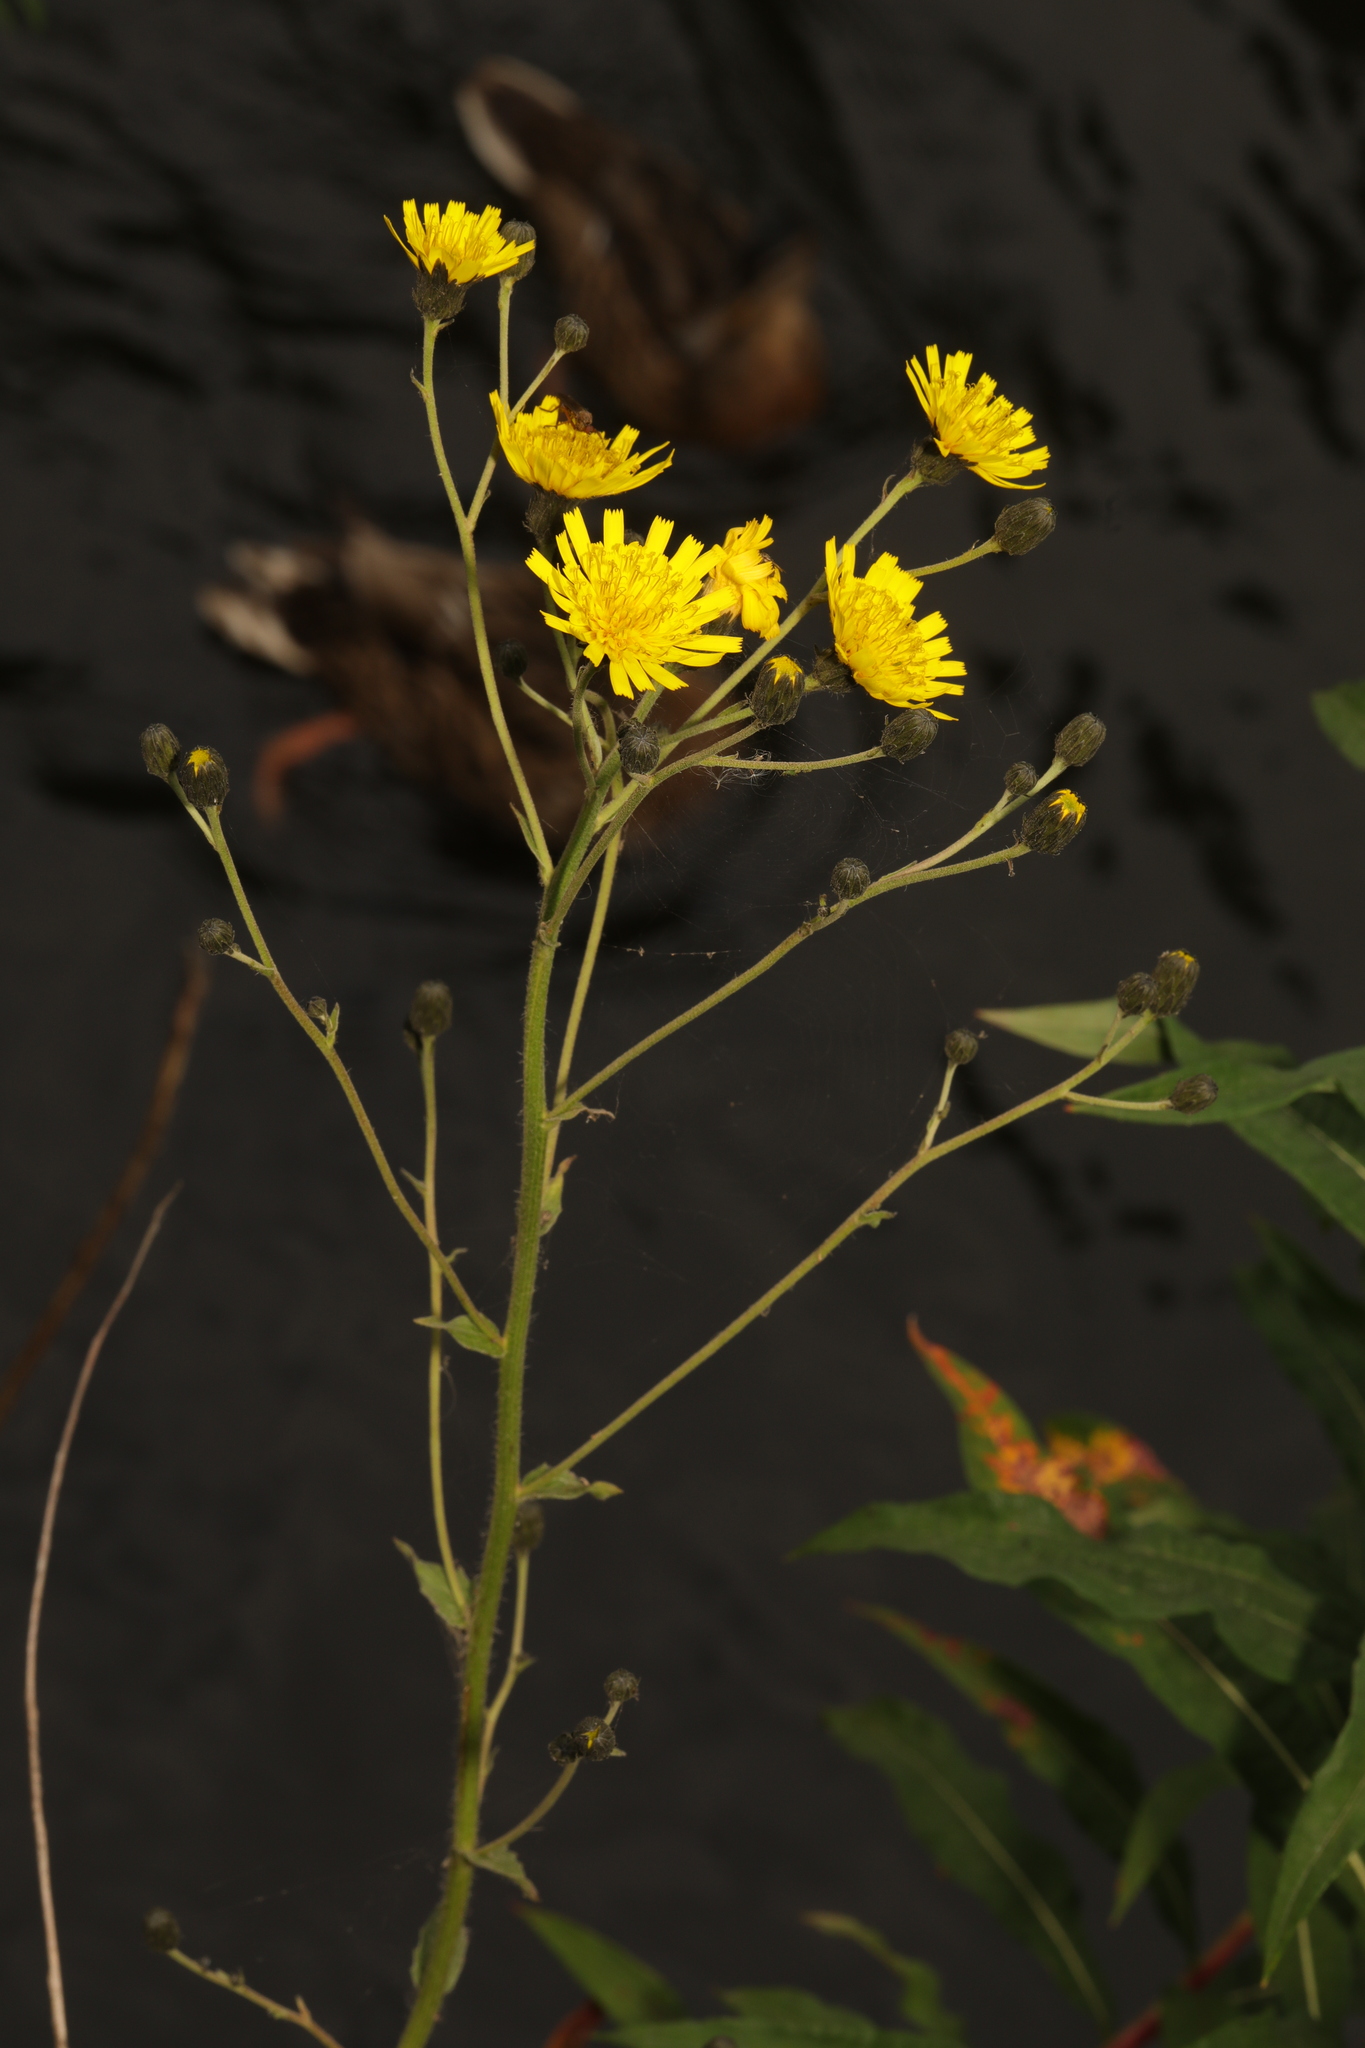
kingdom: Plantae
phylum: Tracheophyta
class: Magnoliopsida
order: Asterales
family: Asteraceae
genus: Hieracium
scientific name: Hieracium sabaudum
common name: New england hawkweed
